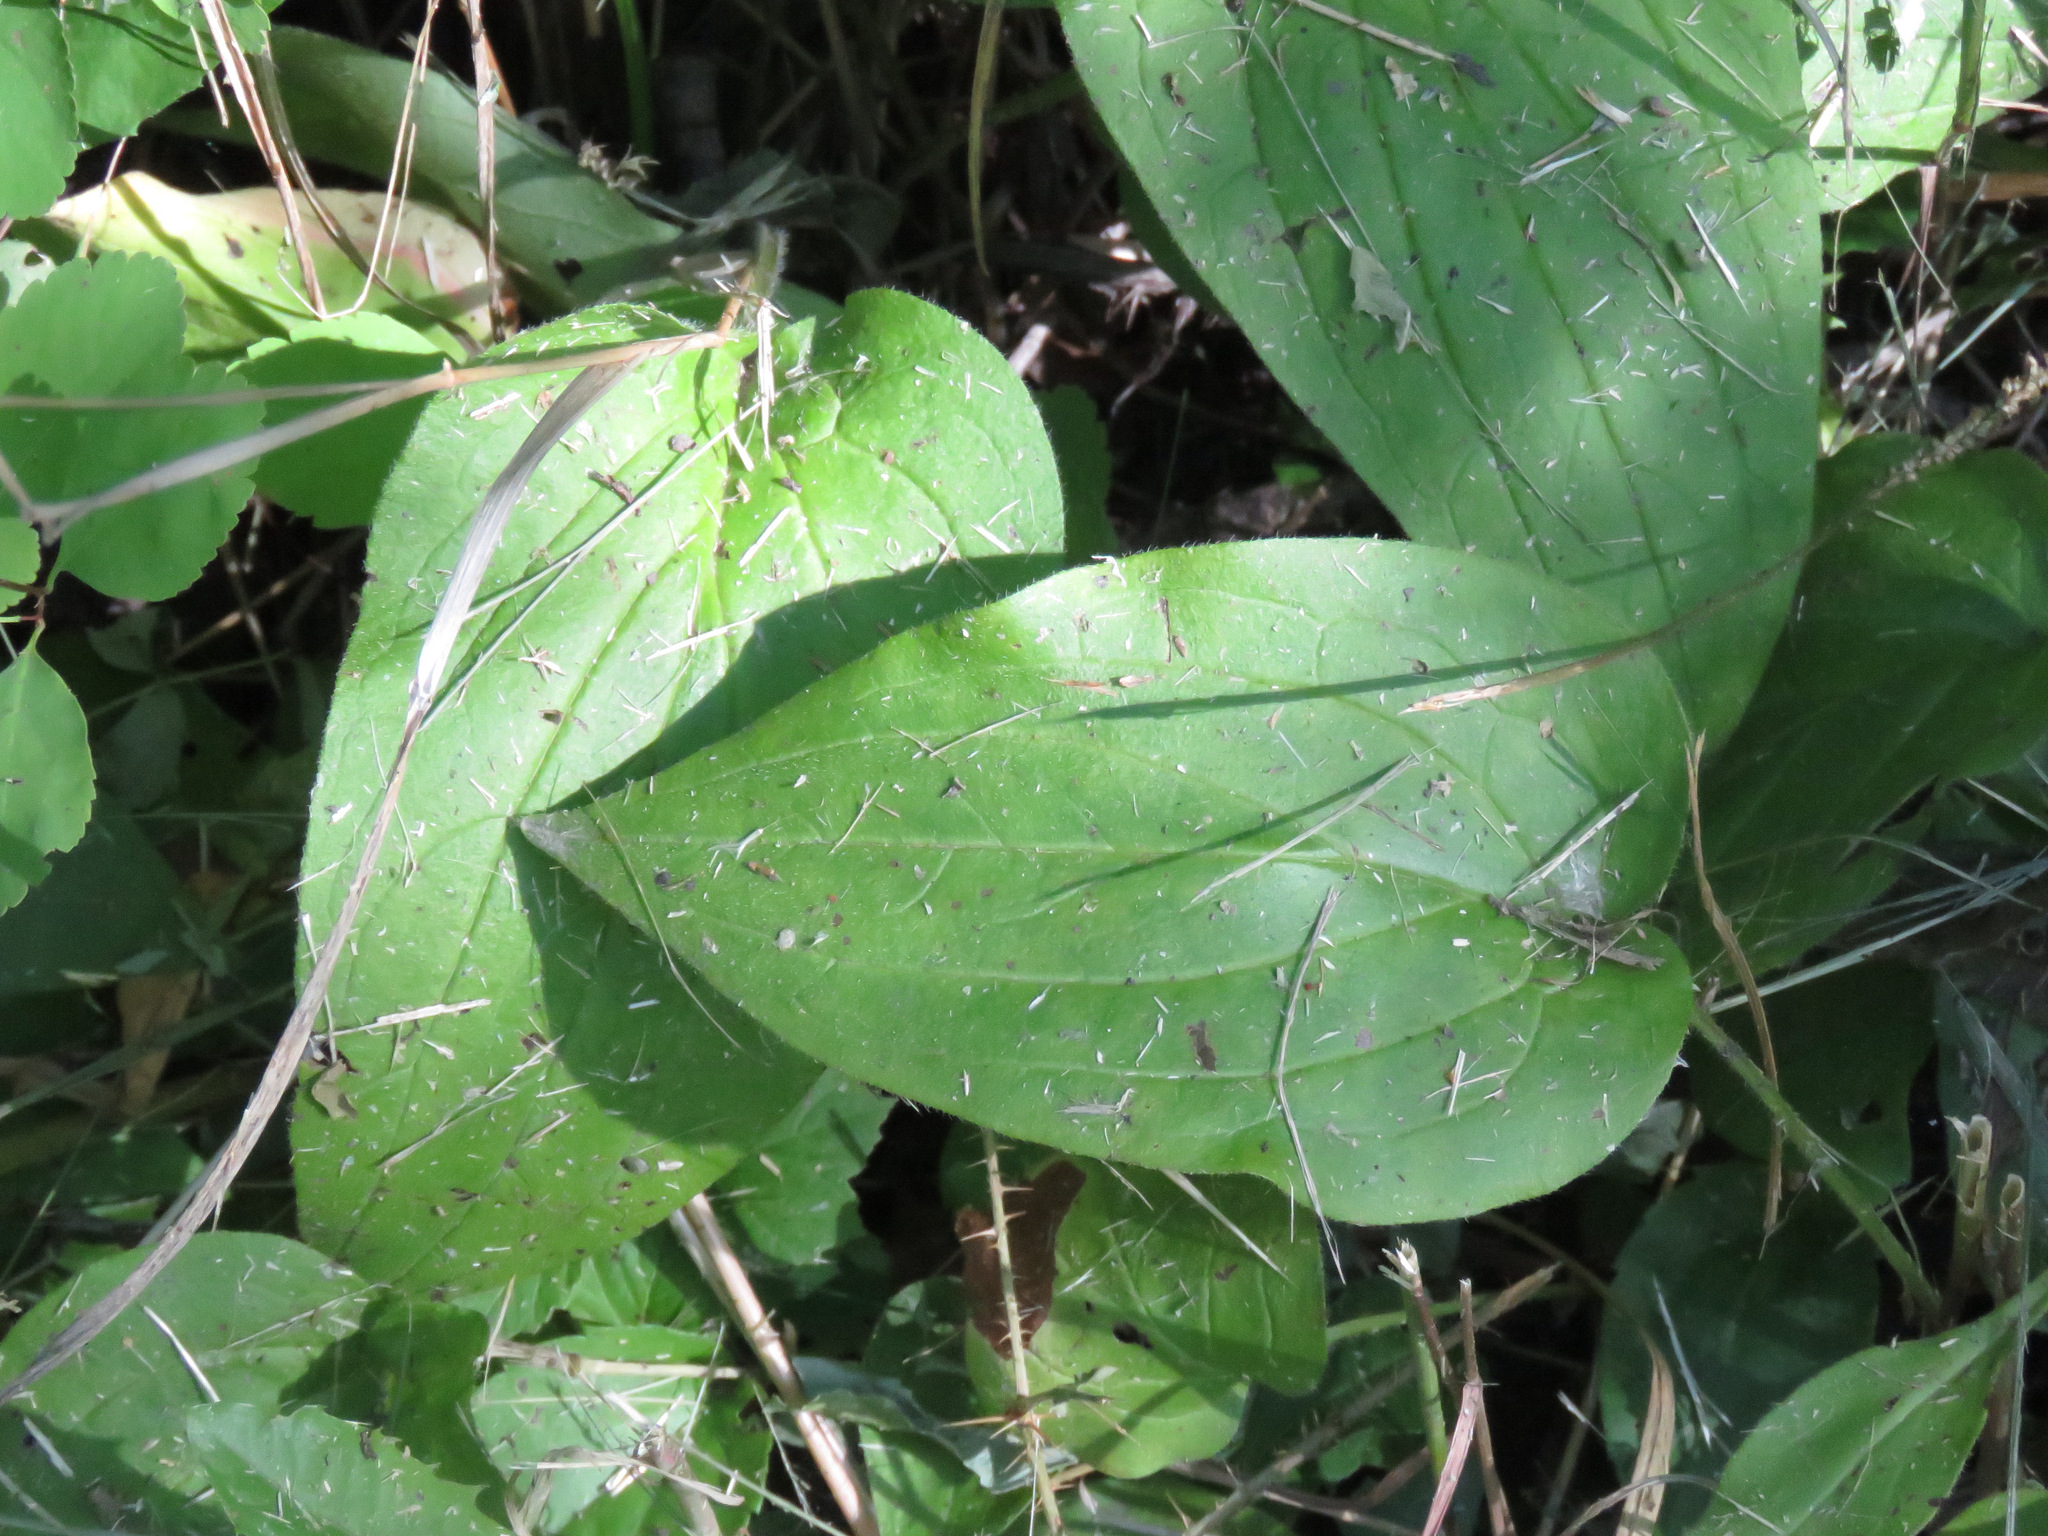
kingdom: Plantae
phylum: Tracheophyta
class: Magnoliopsida
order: Boraginales
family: Boraginaceae
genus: Mertensia
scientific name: Mertensia paniculata
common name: Panicled bluebells
